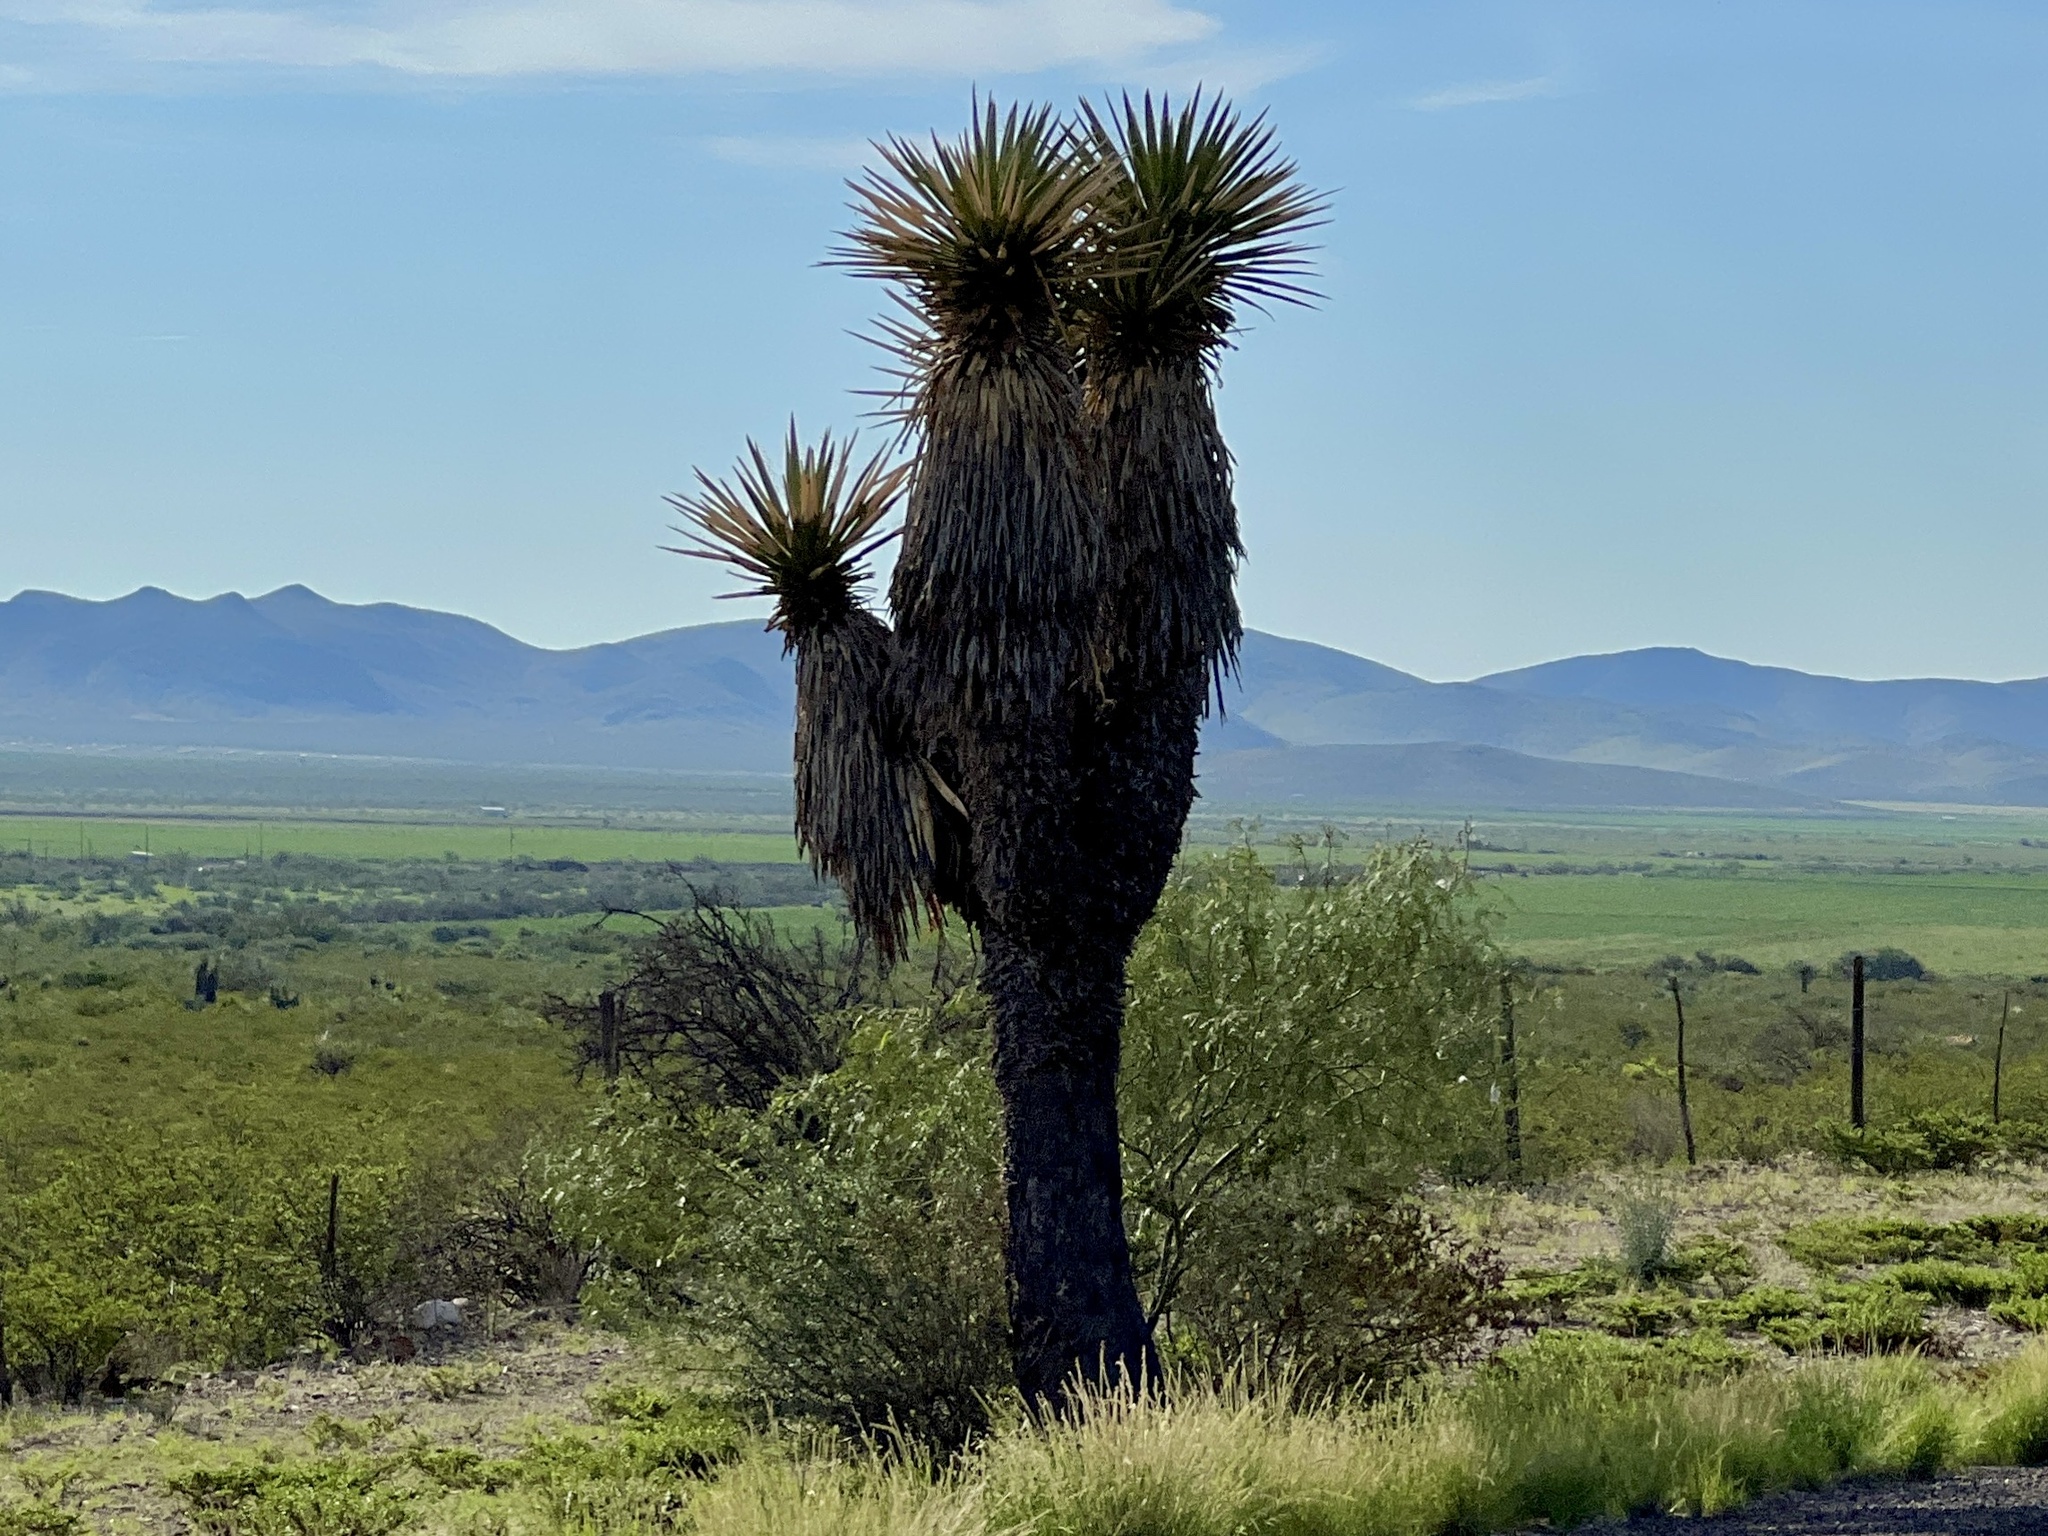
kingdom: Plantae
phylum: Tracheophyta
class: Liliopsida
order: Asparagales
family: Asparagaceae
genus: Yucca
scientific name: Yucca faxoniana
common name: Spanish dagger
